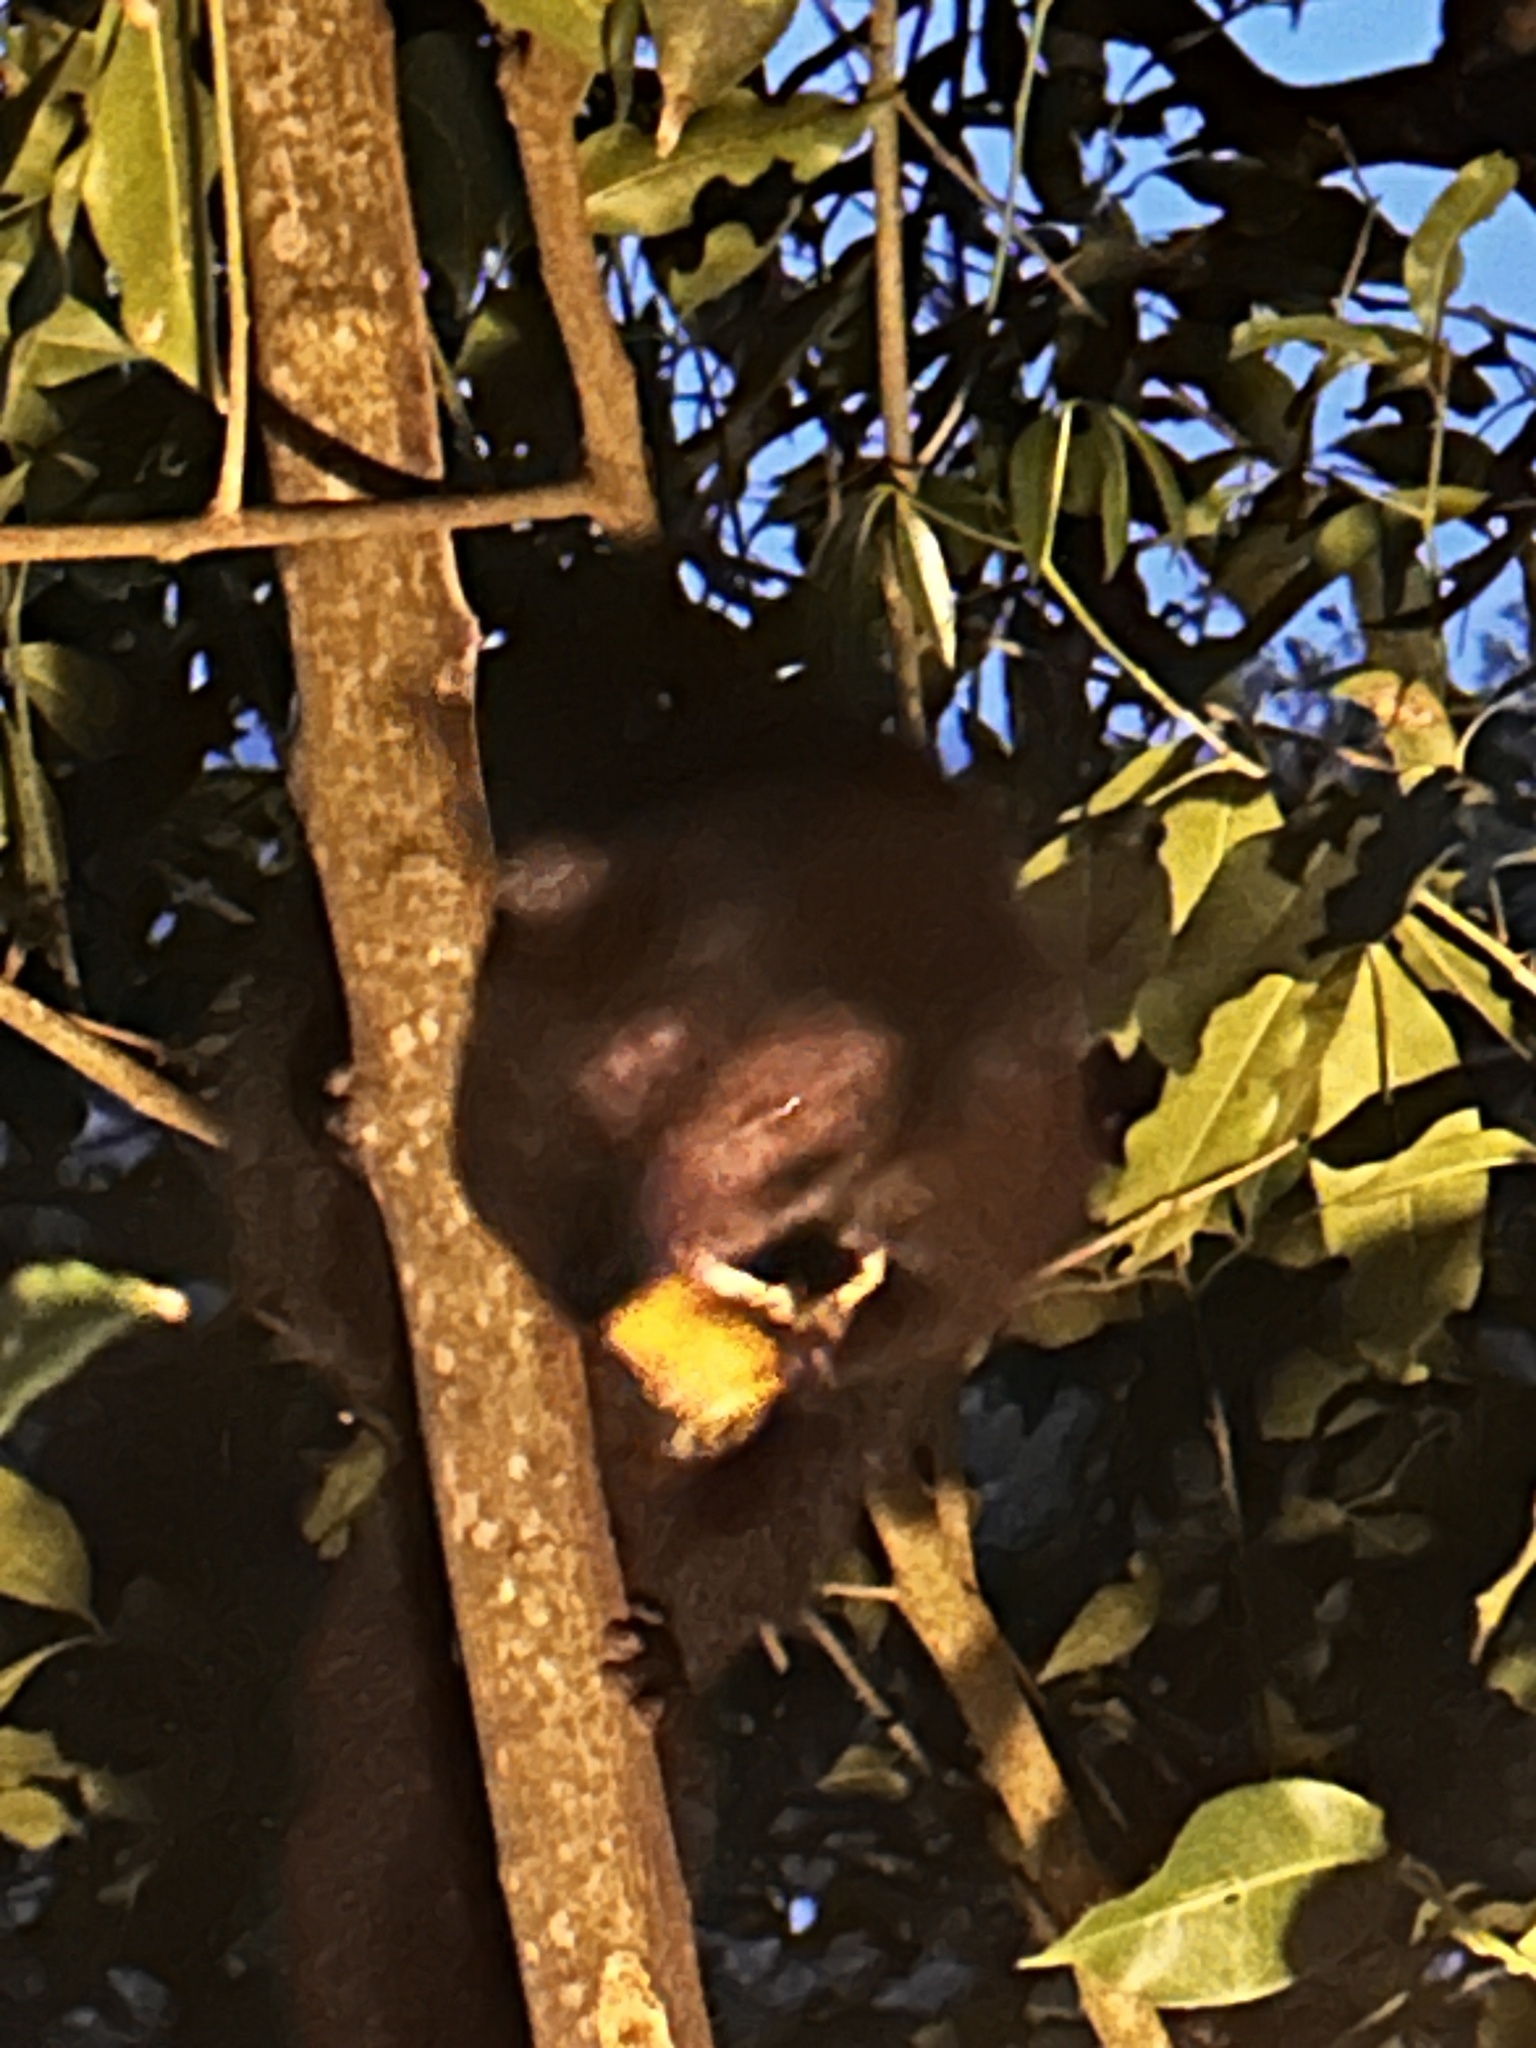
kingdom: Animalia
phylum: Chordata
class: Mammalia
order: Primates
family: Galagidae
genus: Otolemur
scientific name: Otolemur crassicaudatus
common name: Brown greater galago
